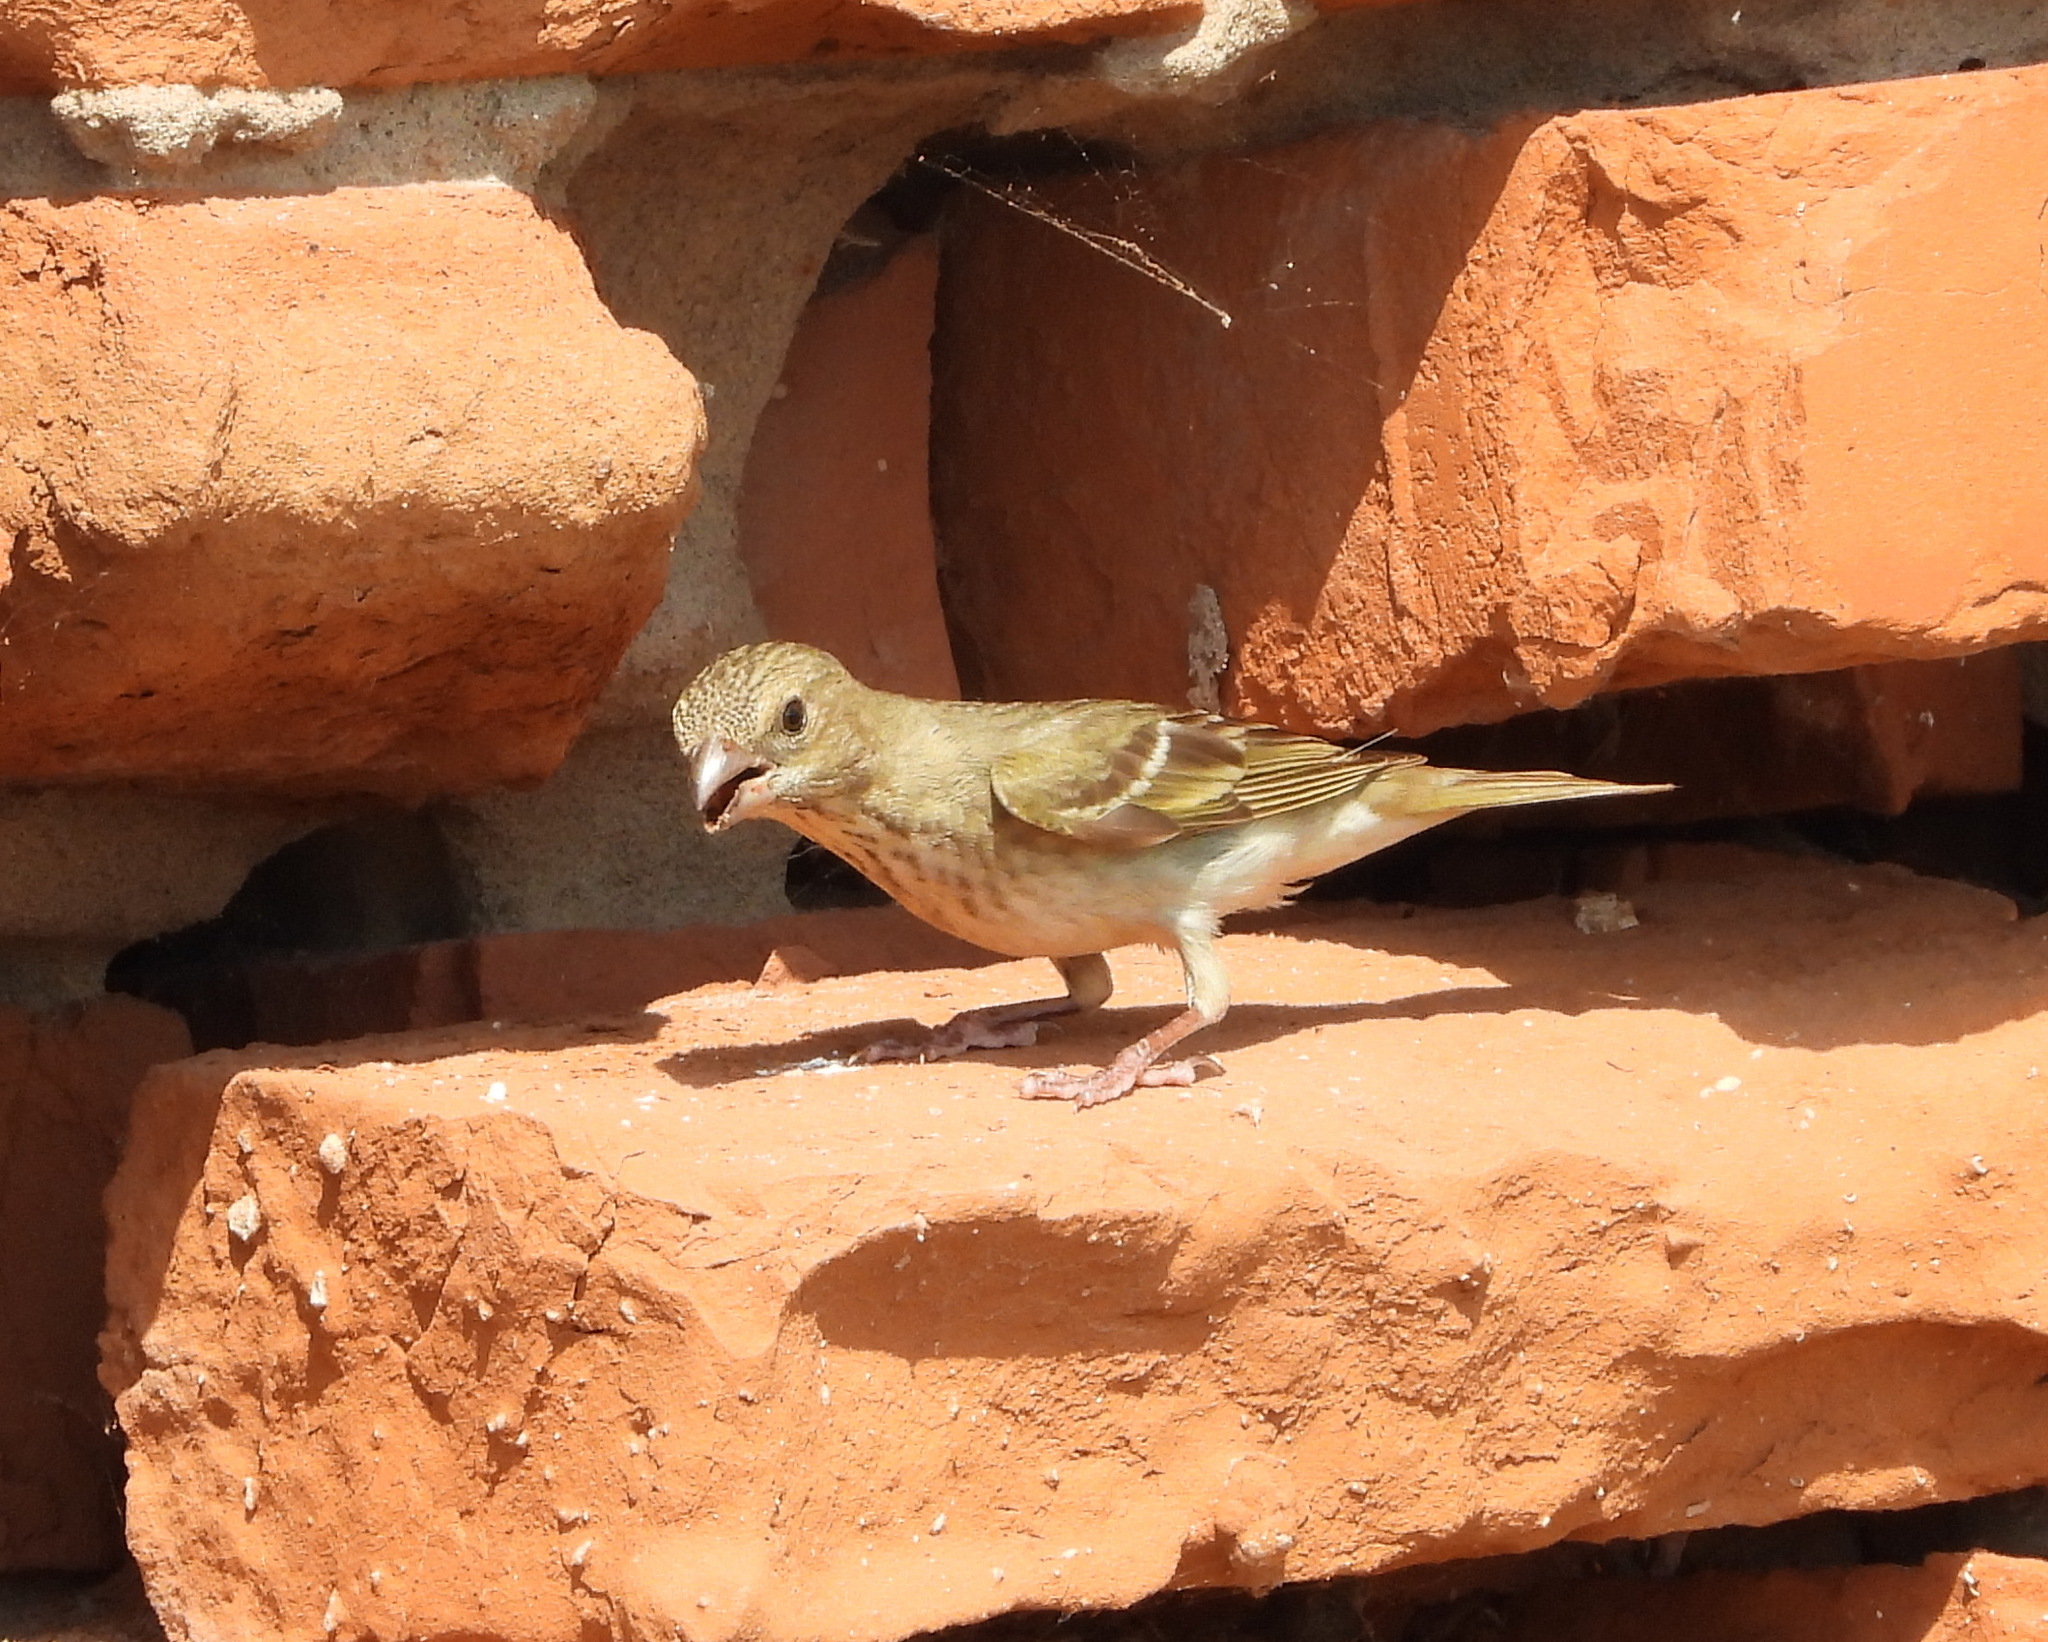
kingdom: Animalia
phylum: Chordata
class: Aves
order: Passeriformes
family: Fringillidae
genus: Carpodacus
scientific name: Carpodacus erythrinus
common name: Common rosefinch
